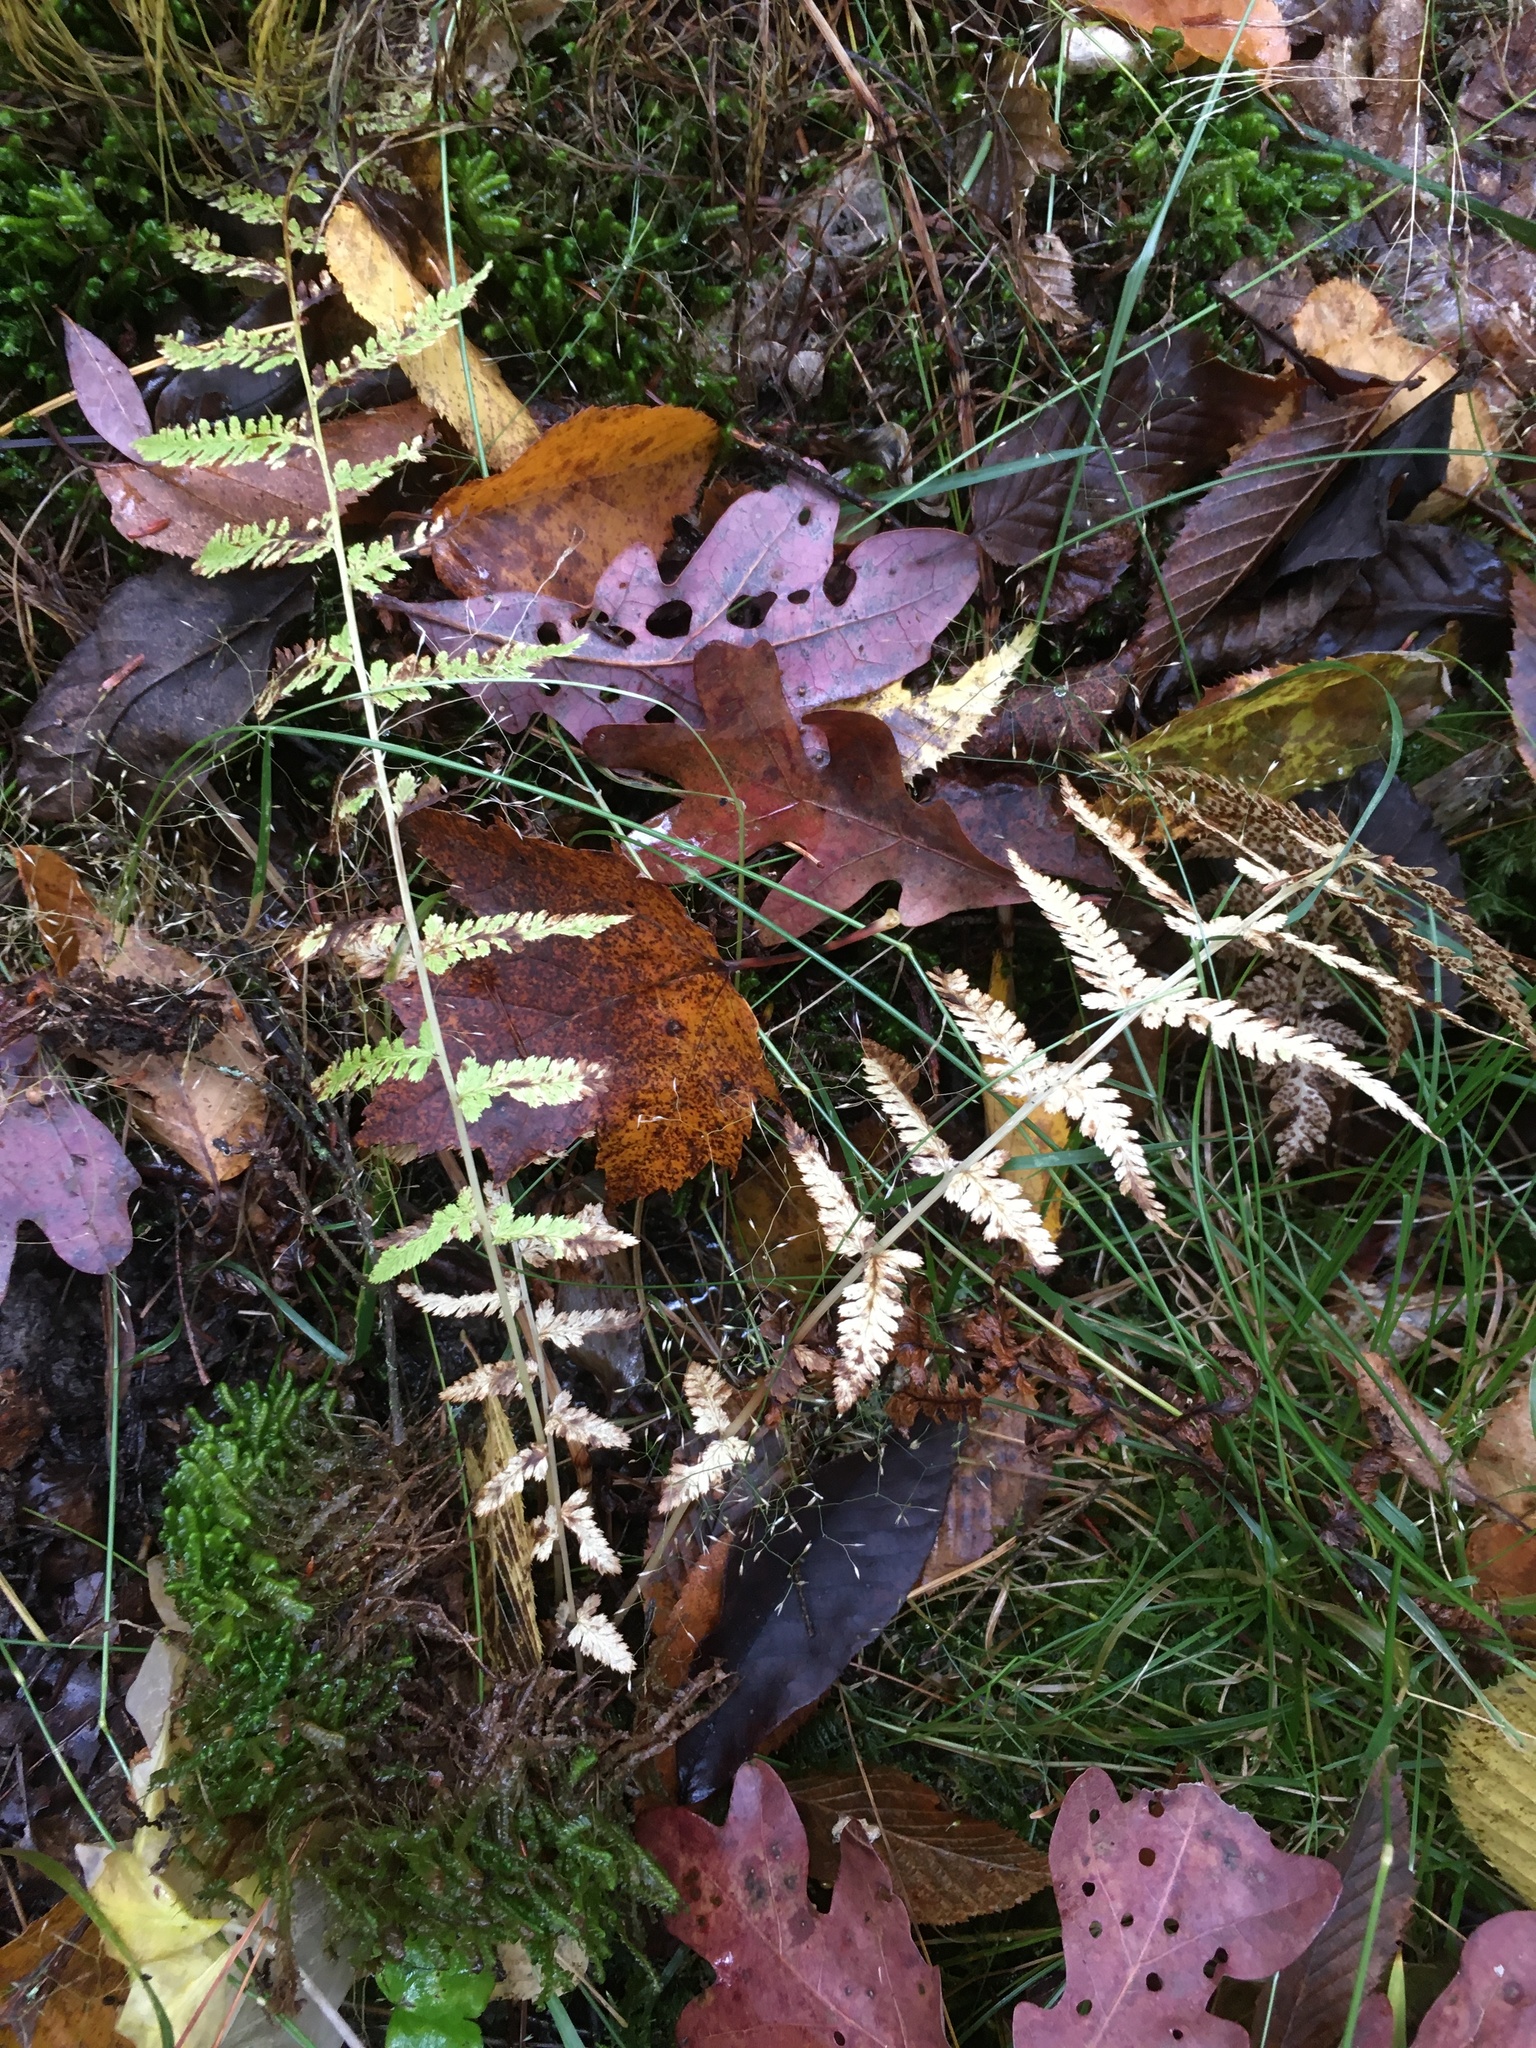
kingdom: Plantae
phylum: Tracheophyta
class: Polypodiopsida
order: Polypodiales
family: Athyriaceae
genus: Athyrium
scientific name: Athyrium angustum
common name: Northern lady fern
